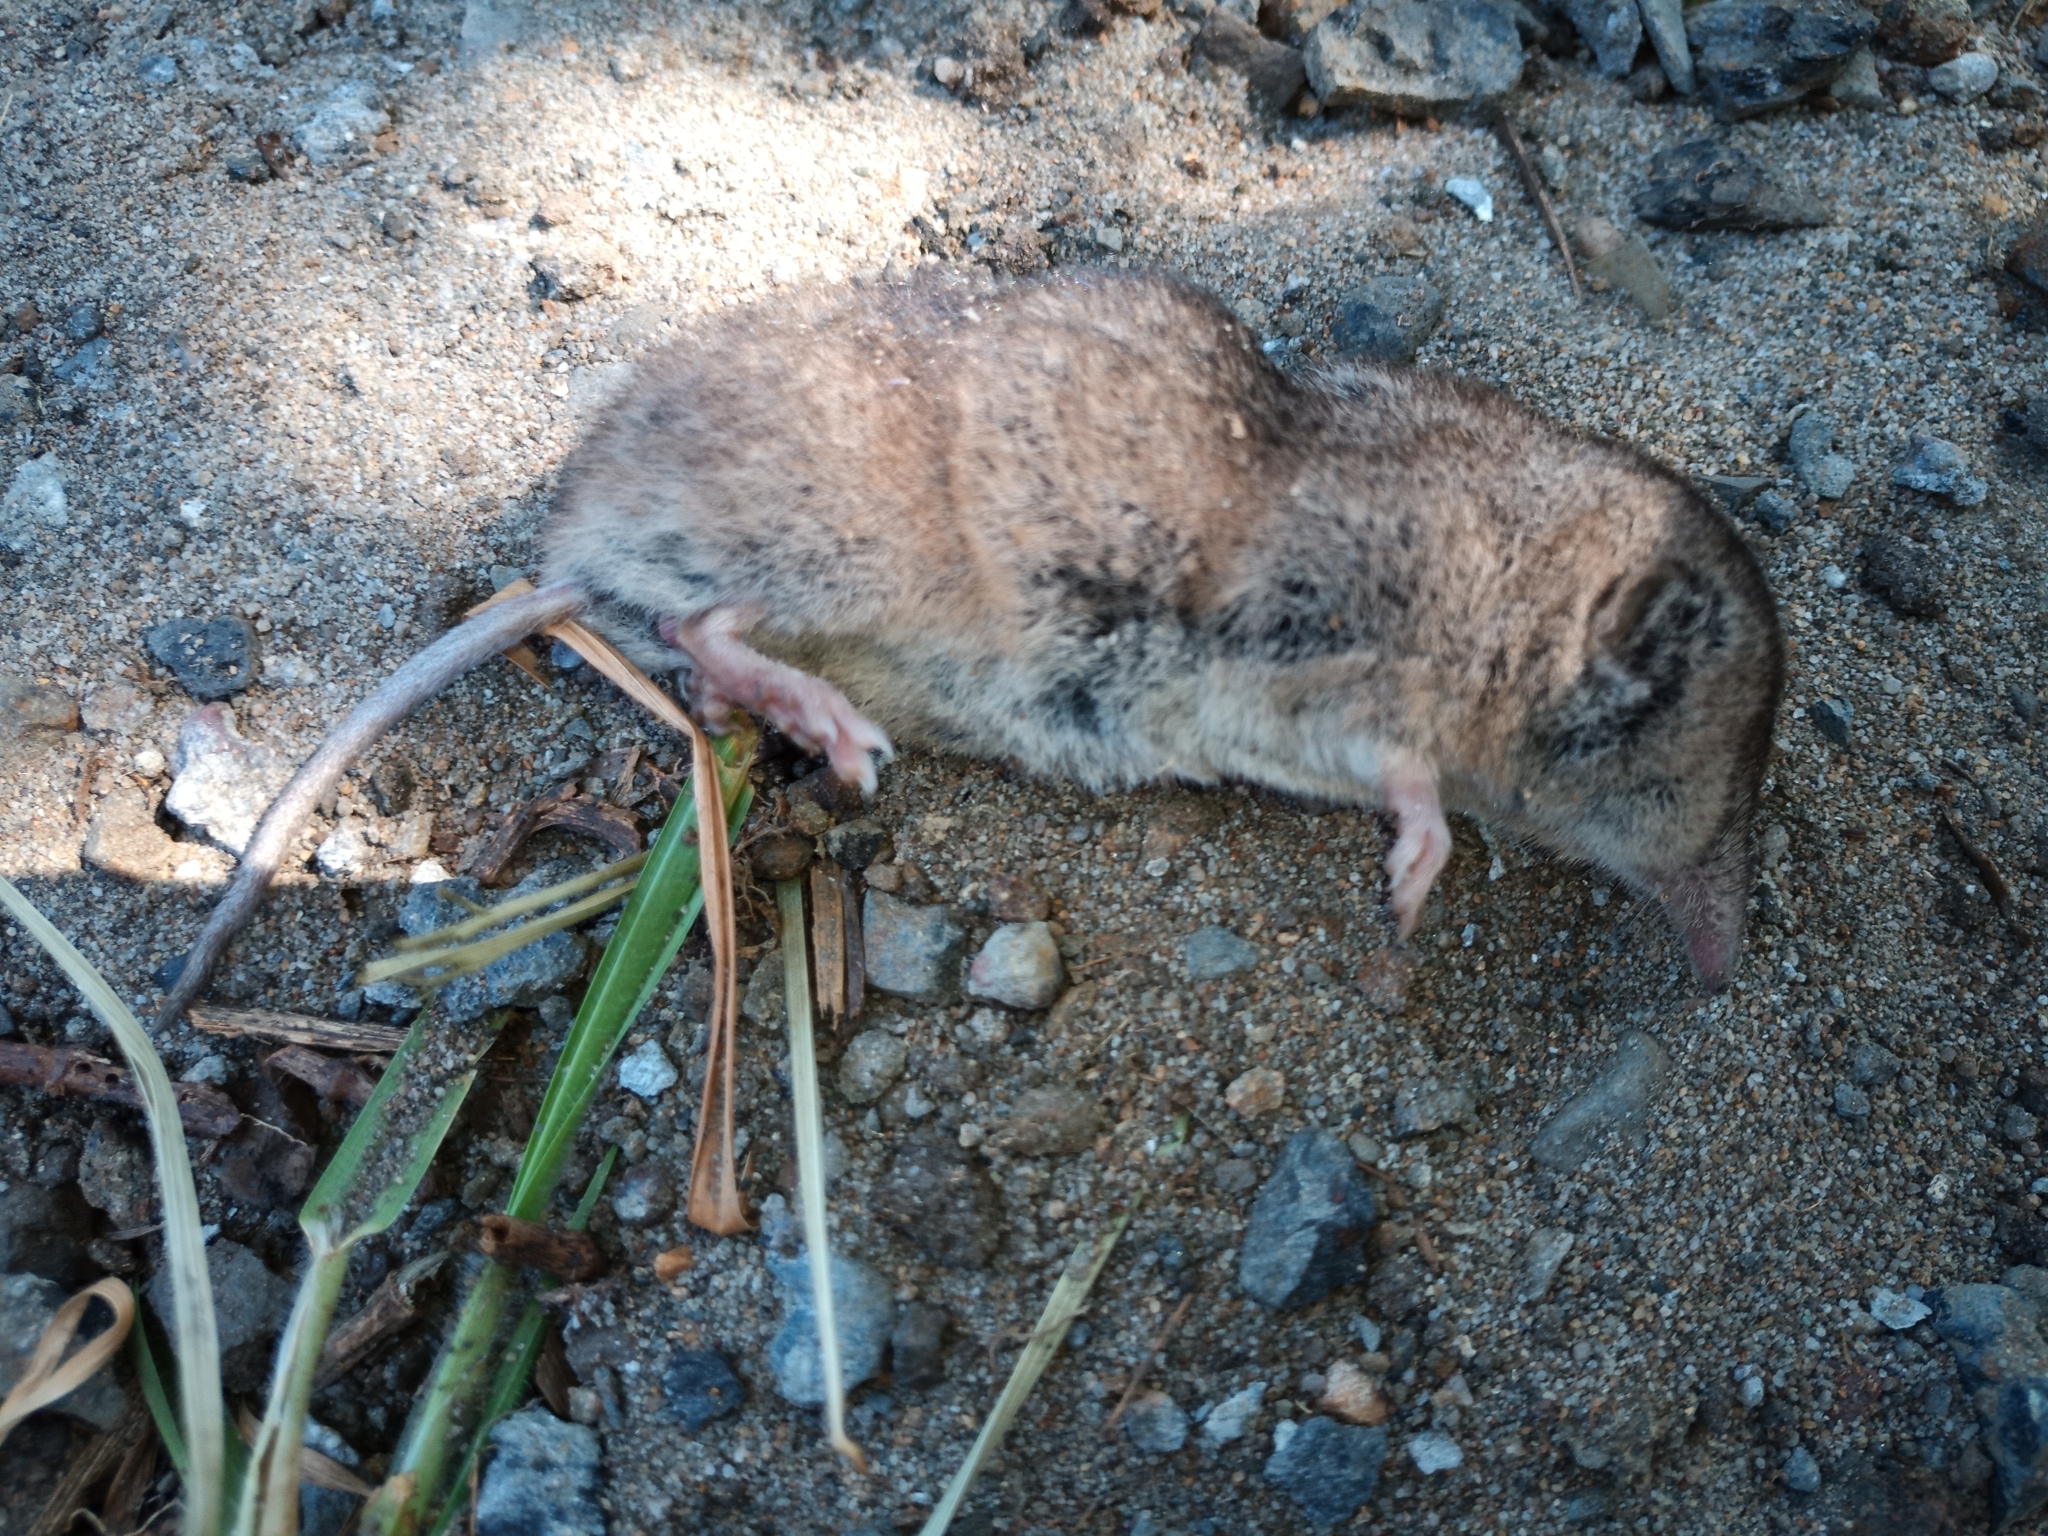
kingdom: Animalia
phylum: Chordata
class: Mammalia
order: Soricomorpha
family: Soricidae
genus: Myosorex
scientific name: Myosorex varius
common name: Forest shrew
